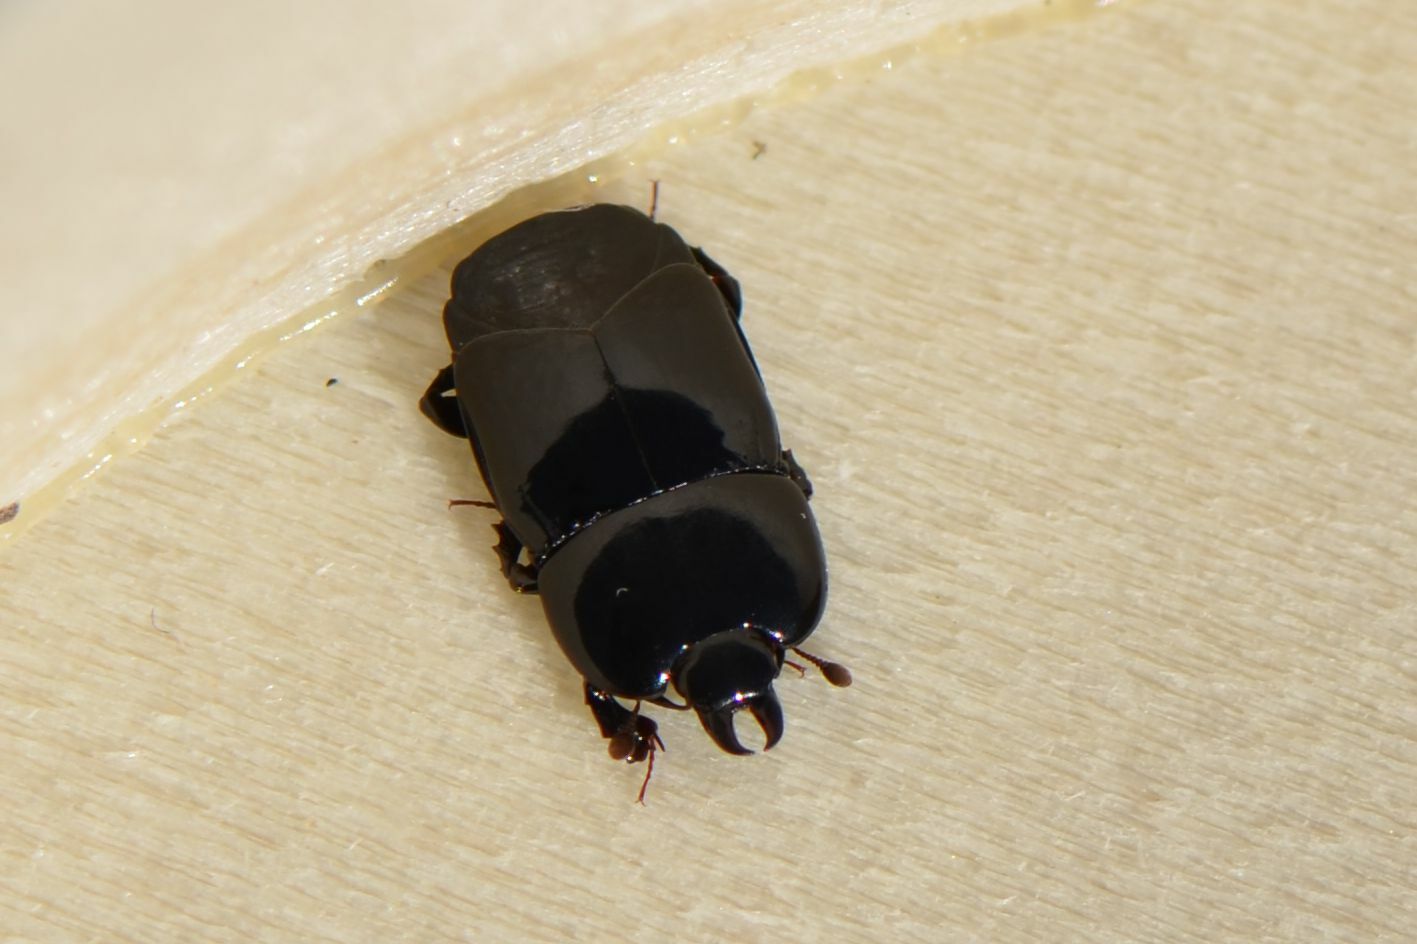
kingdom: Animalia
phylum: Arthropoda
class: Insecta
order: Coleoptera
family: Histeridae
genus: Hololepta
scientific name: Hololepta plana
